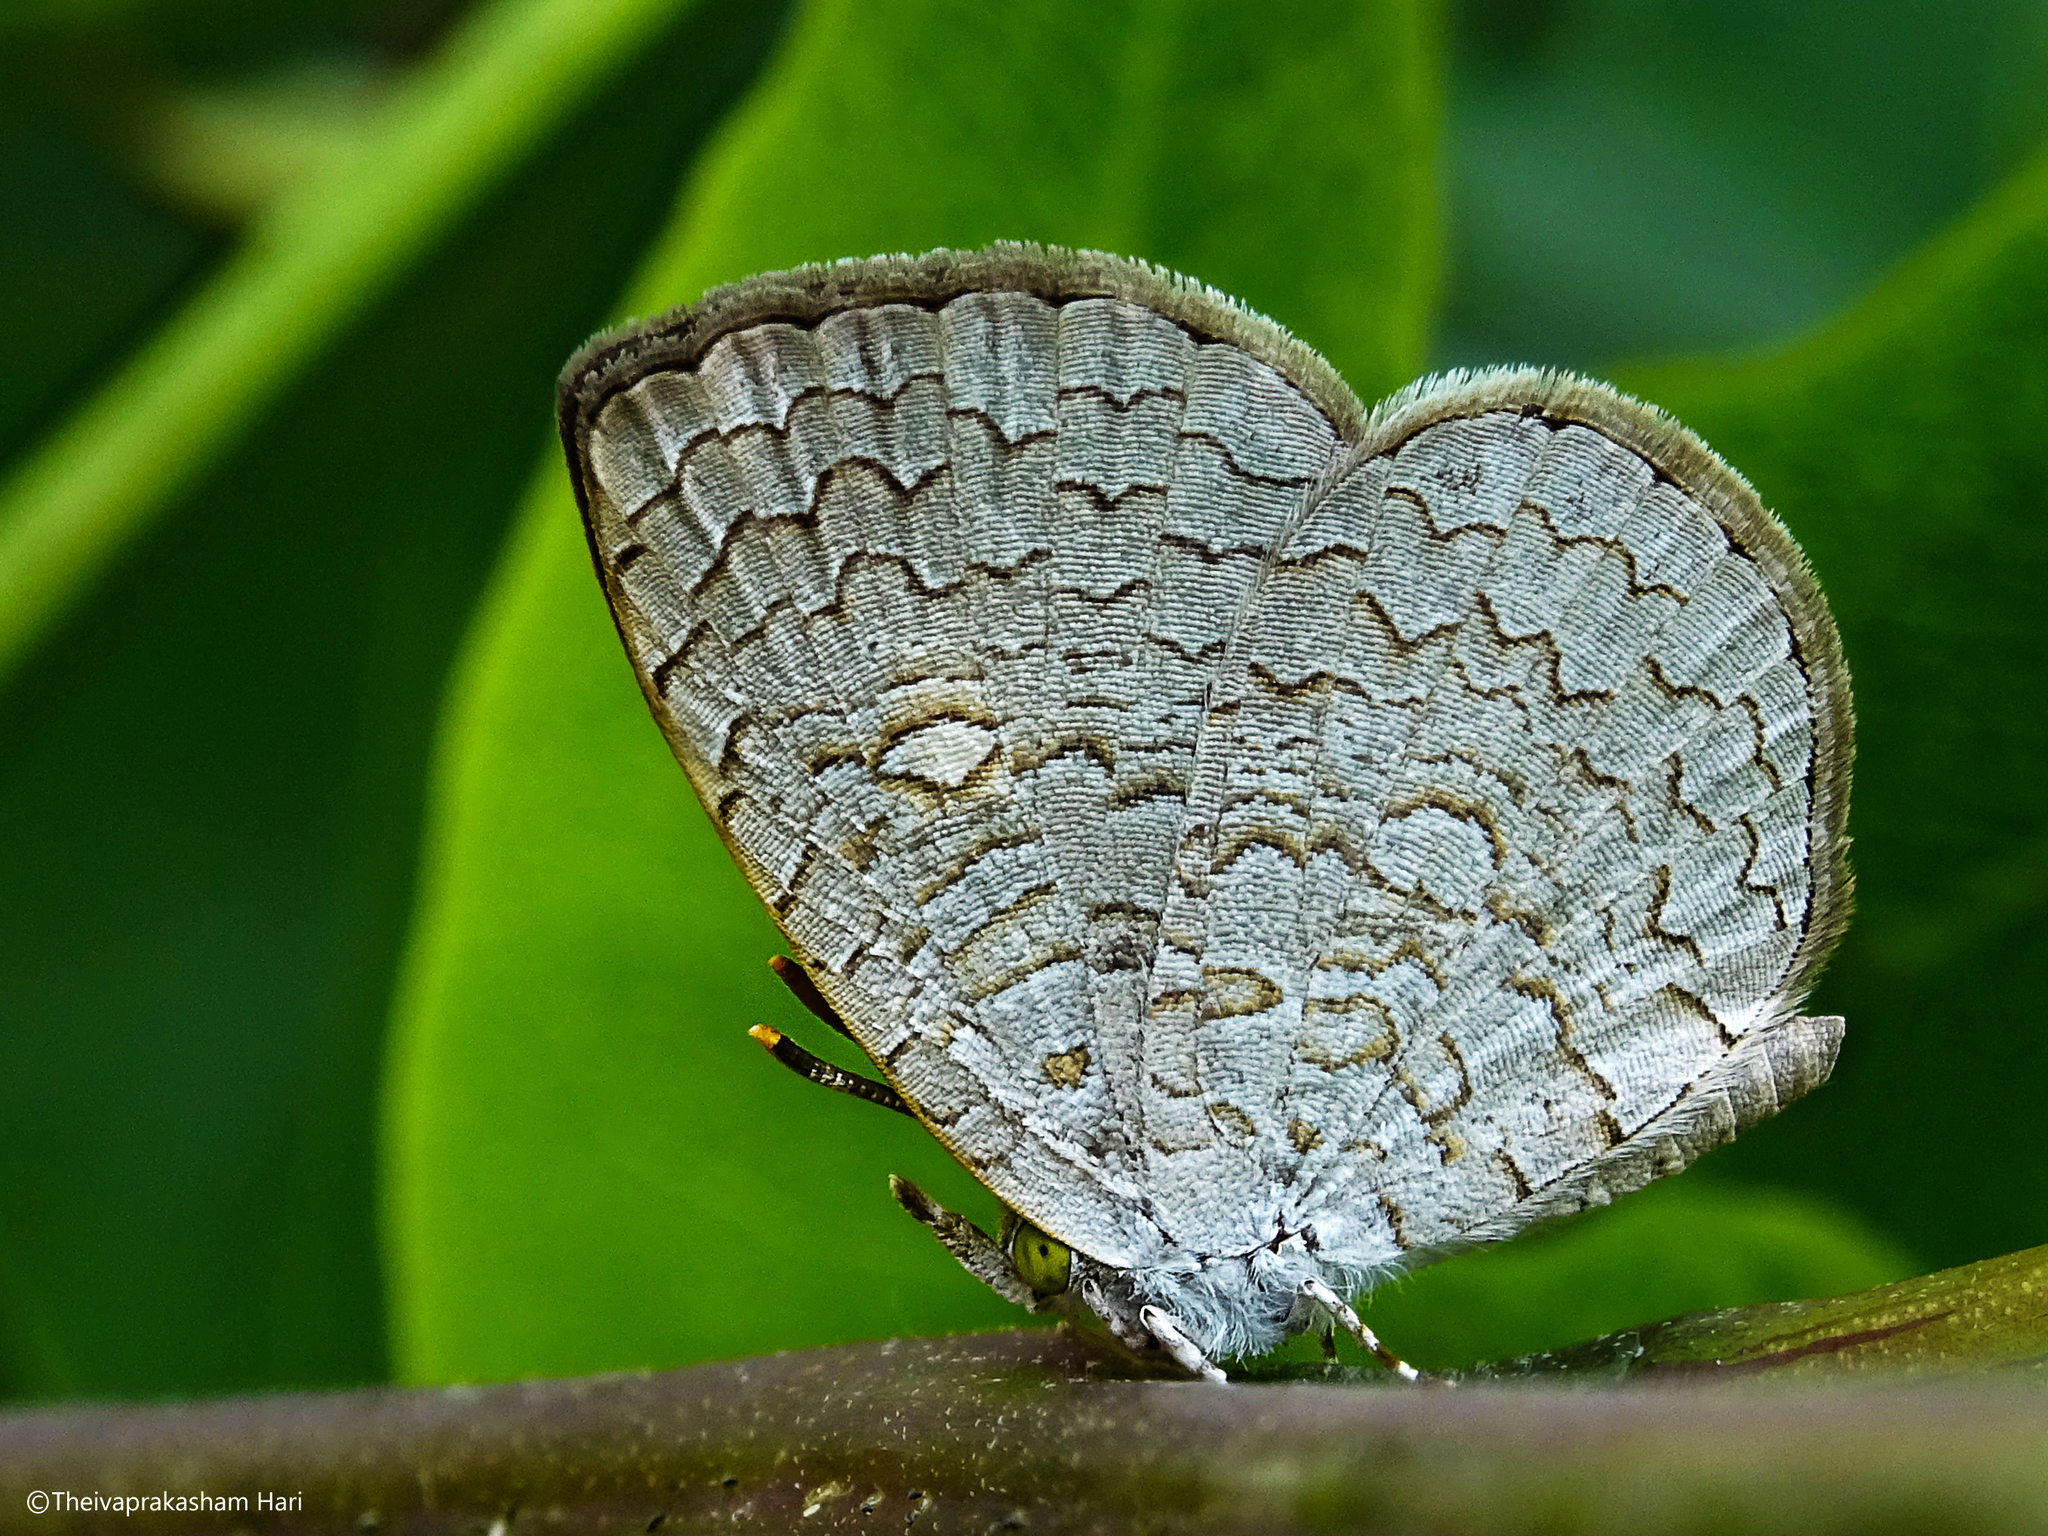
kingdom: Animalia
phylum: Arthropoda
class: Insecta
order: Lepidoptera
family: Lycaenidae
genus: Spalgis
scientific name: Spalgis epius
